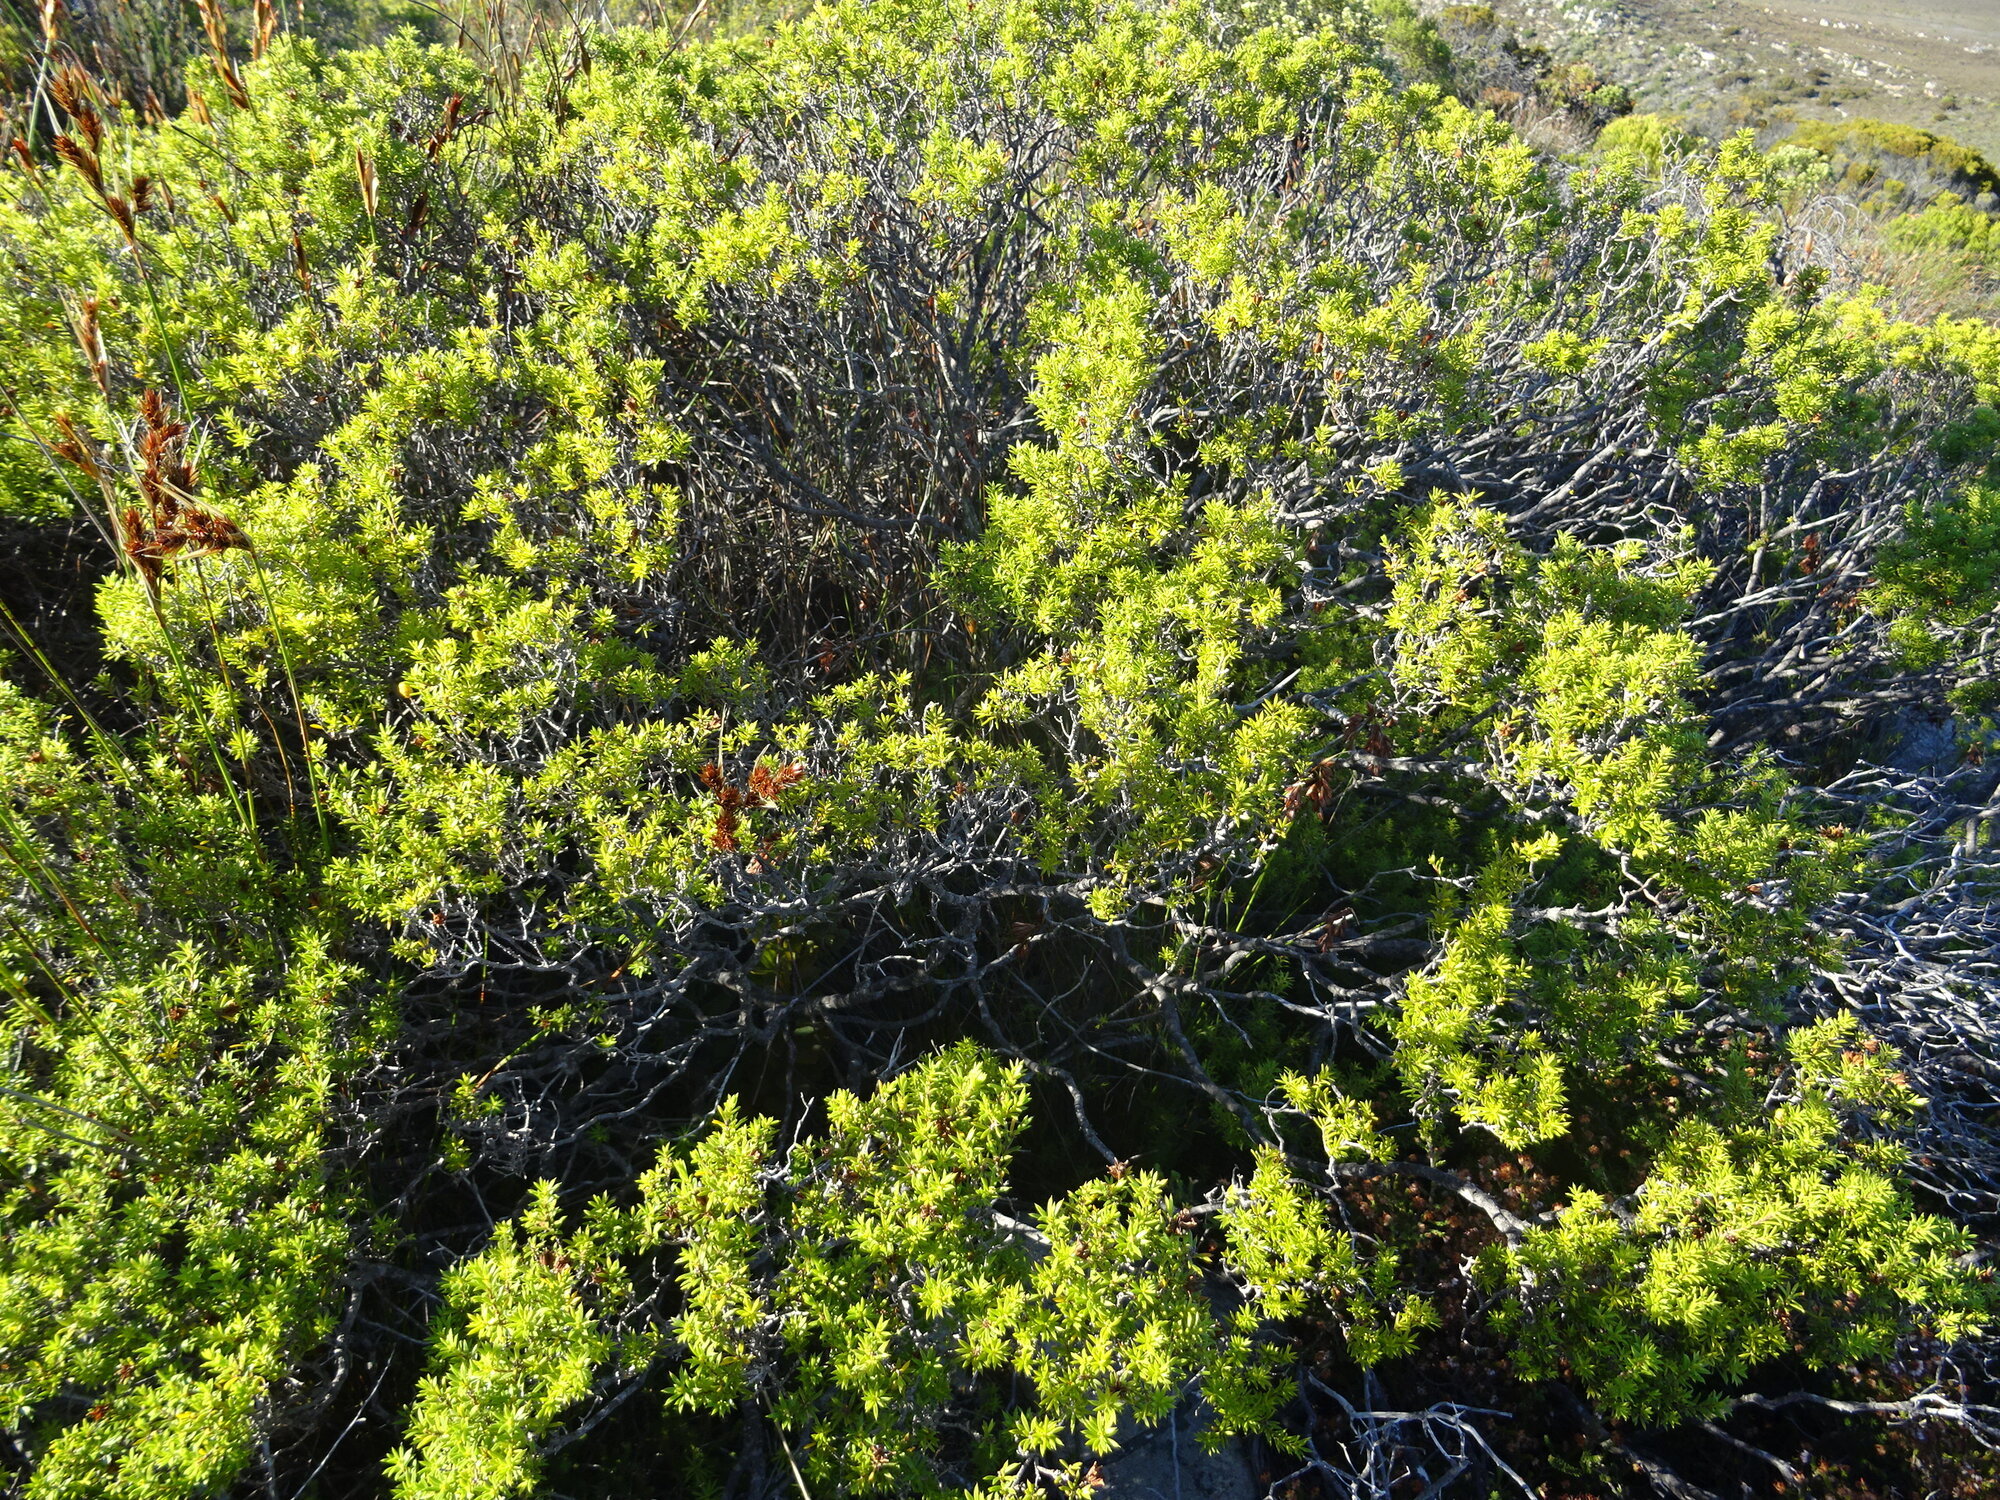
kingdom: Plantae
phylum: Tracheophyta
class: Magnoliopsida
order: Sapindales
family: Rutaceae
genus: Coleonema
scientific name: Coleonema album
